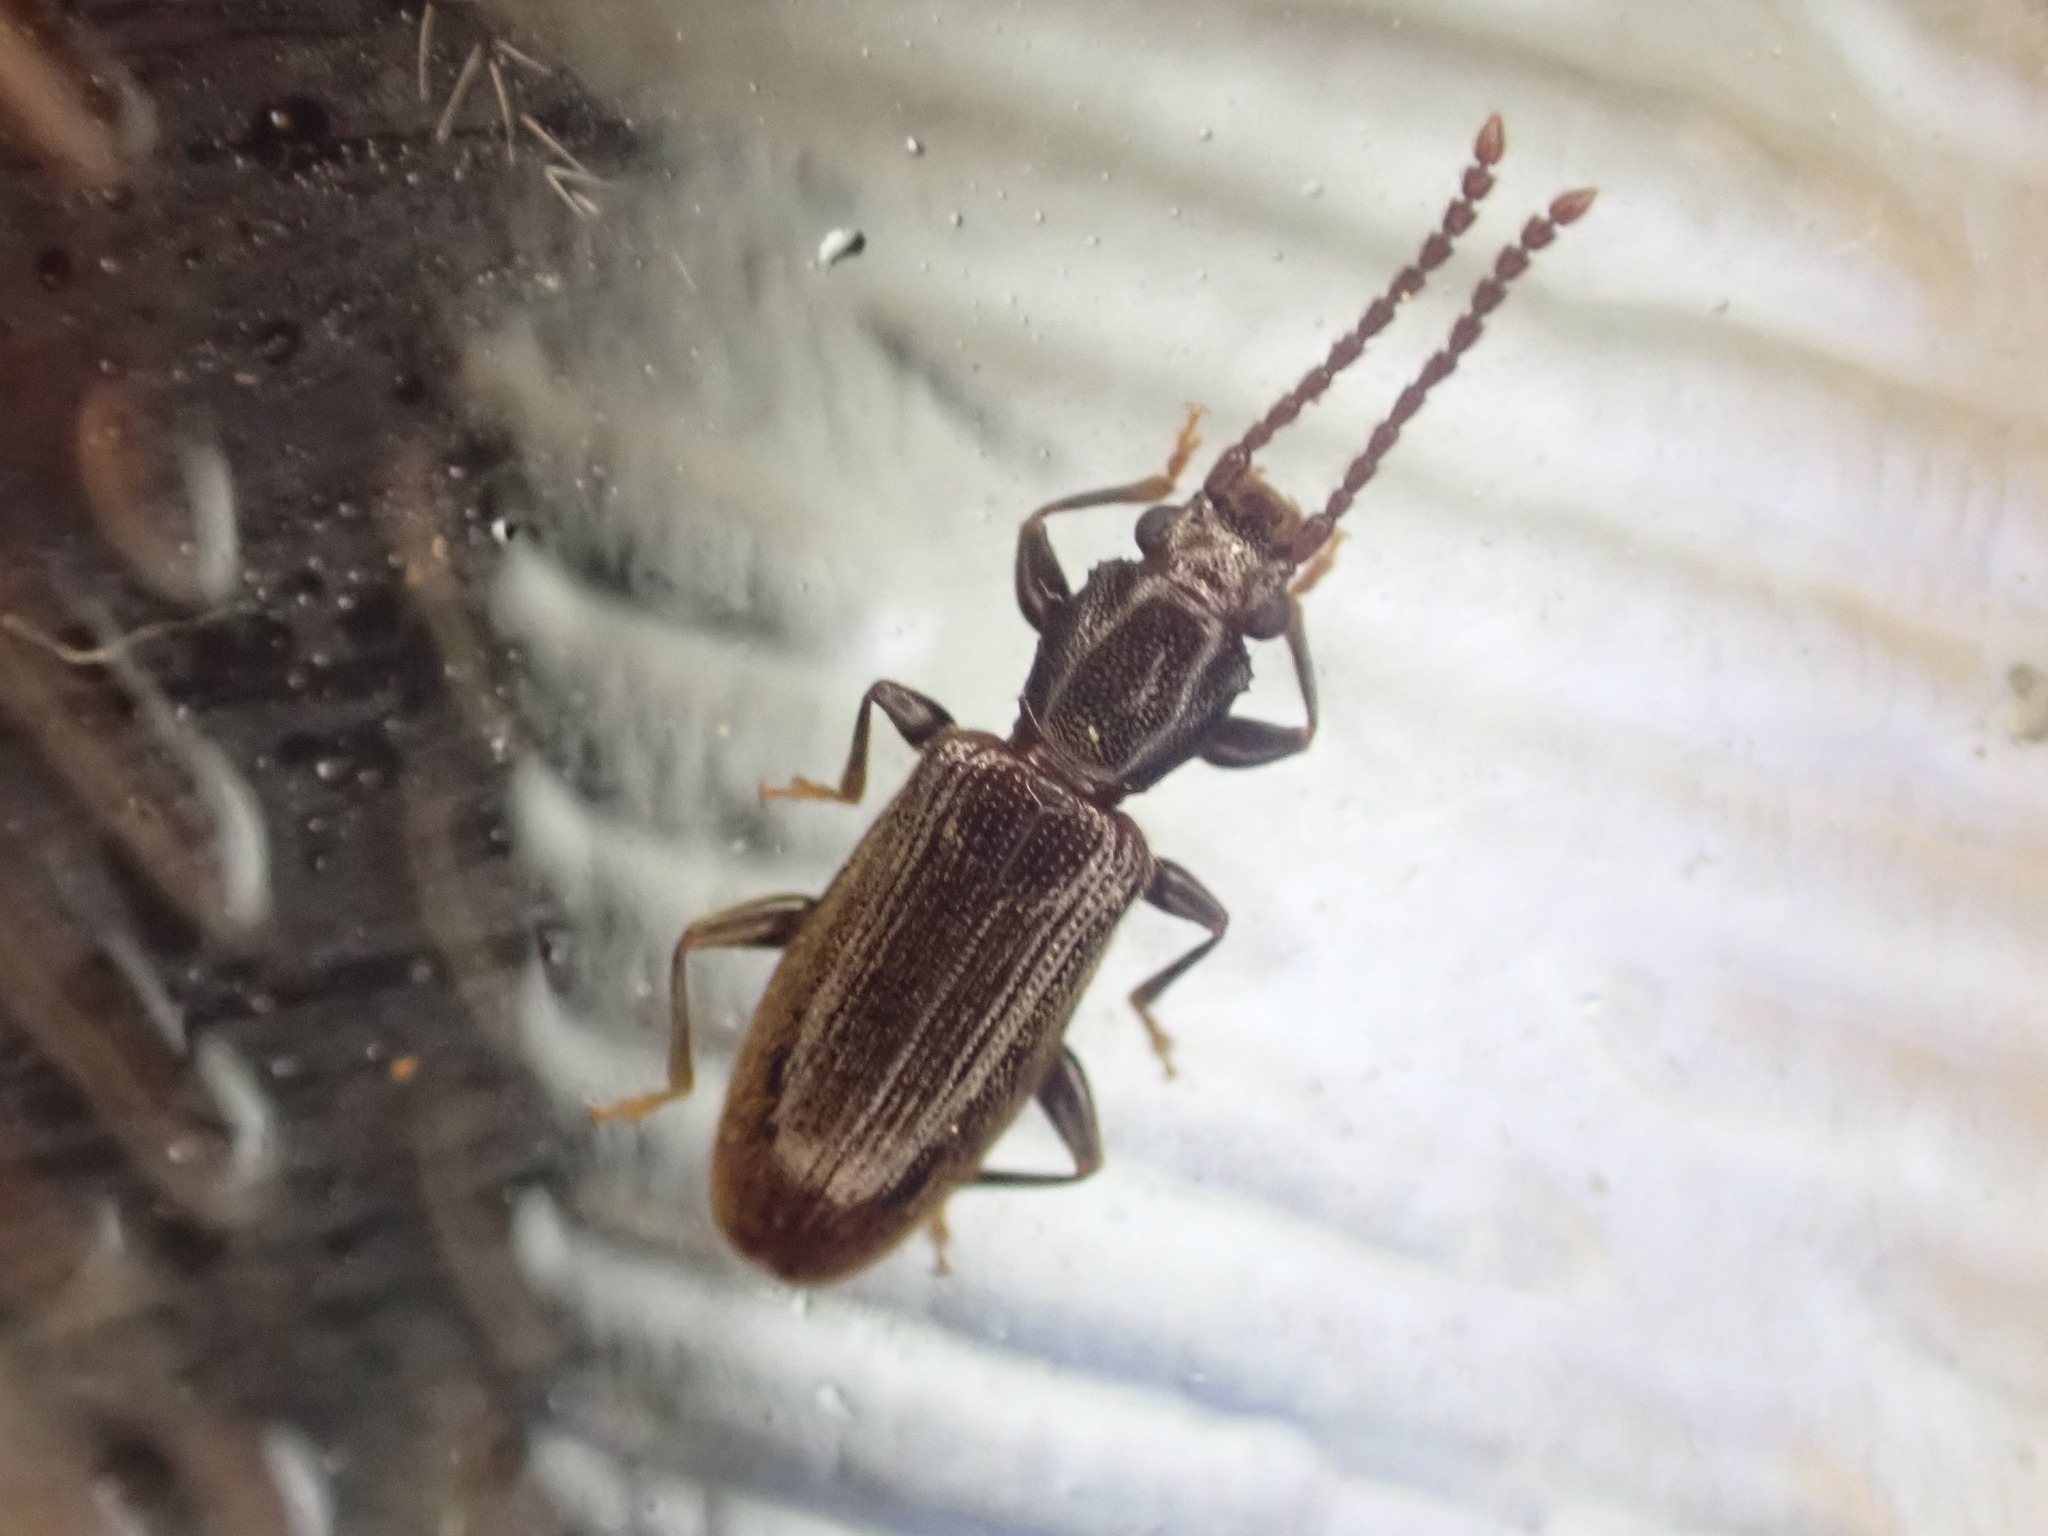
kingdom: Animalia
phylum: Arthropoda
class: Insecta
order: Coleoptera
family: Silvanidae
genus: Cryptamorpha
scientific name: Cryptamorpha brevicornis
